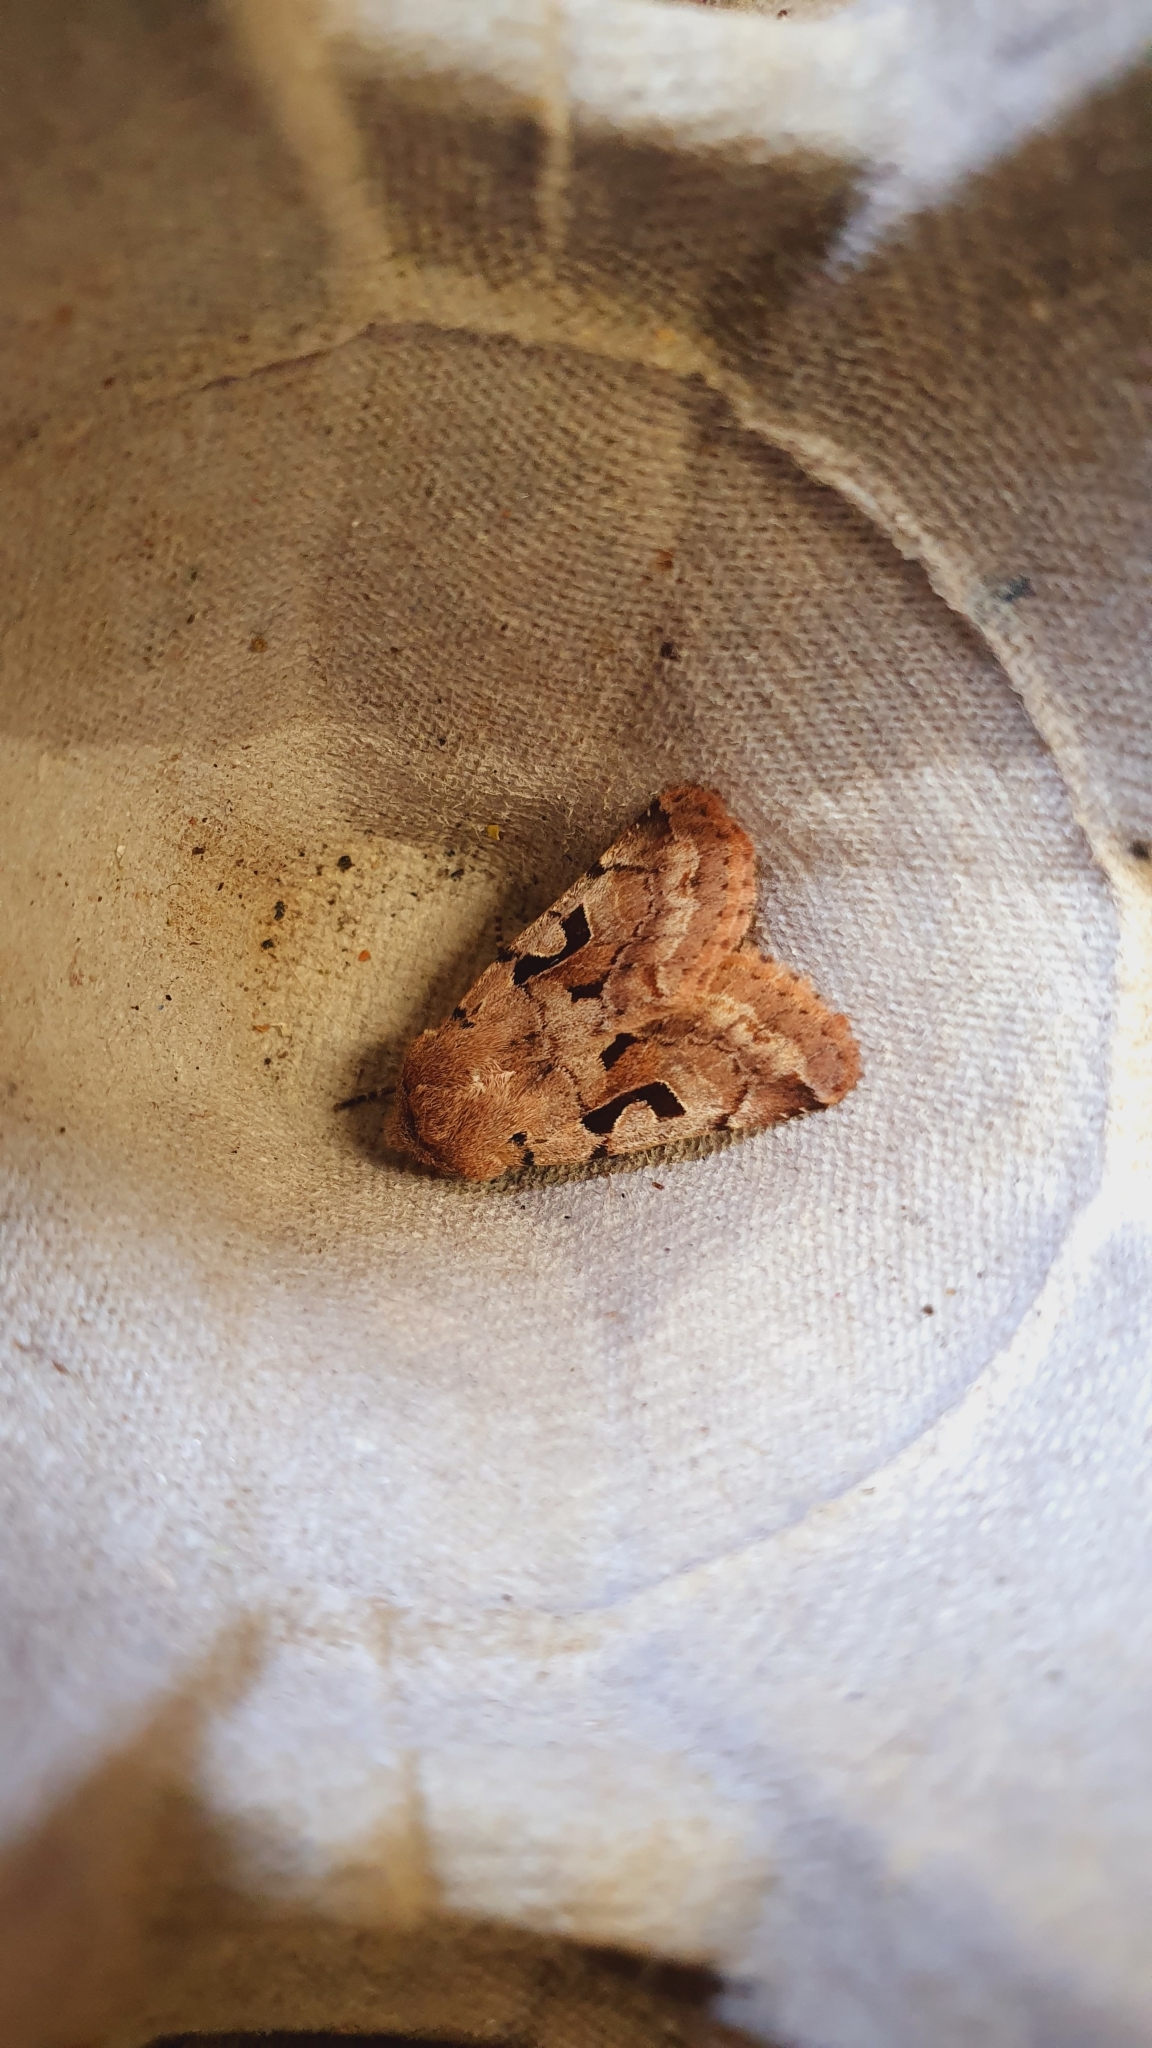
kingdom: Animalia
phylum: Arthropoda
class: Insecta
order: Lepidoptera
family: Noctuidae
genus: Orthosia
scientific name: Orthosia gothica
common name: Hebrew character
